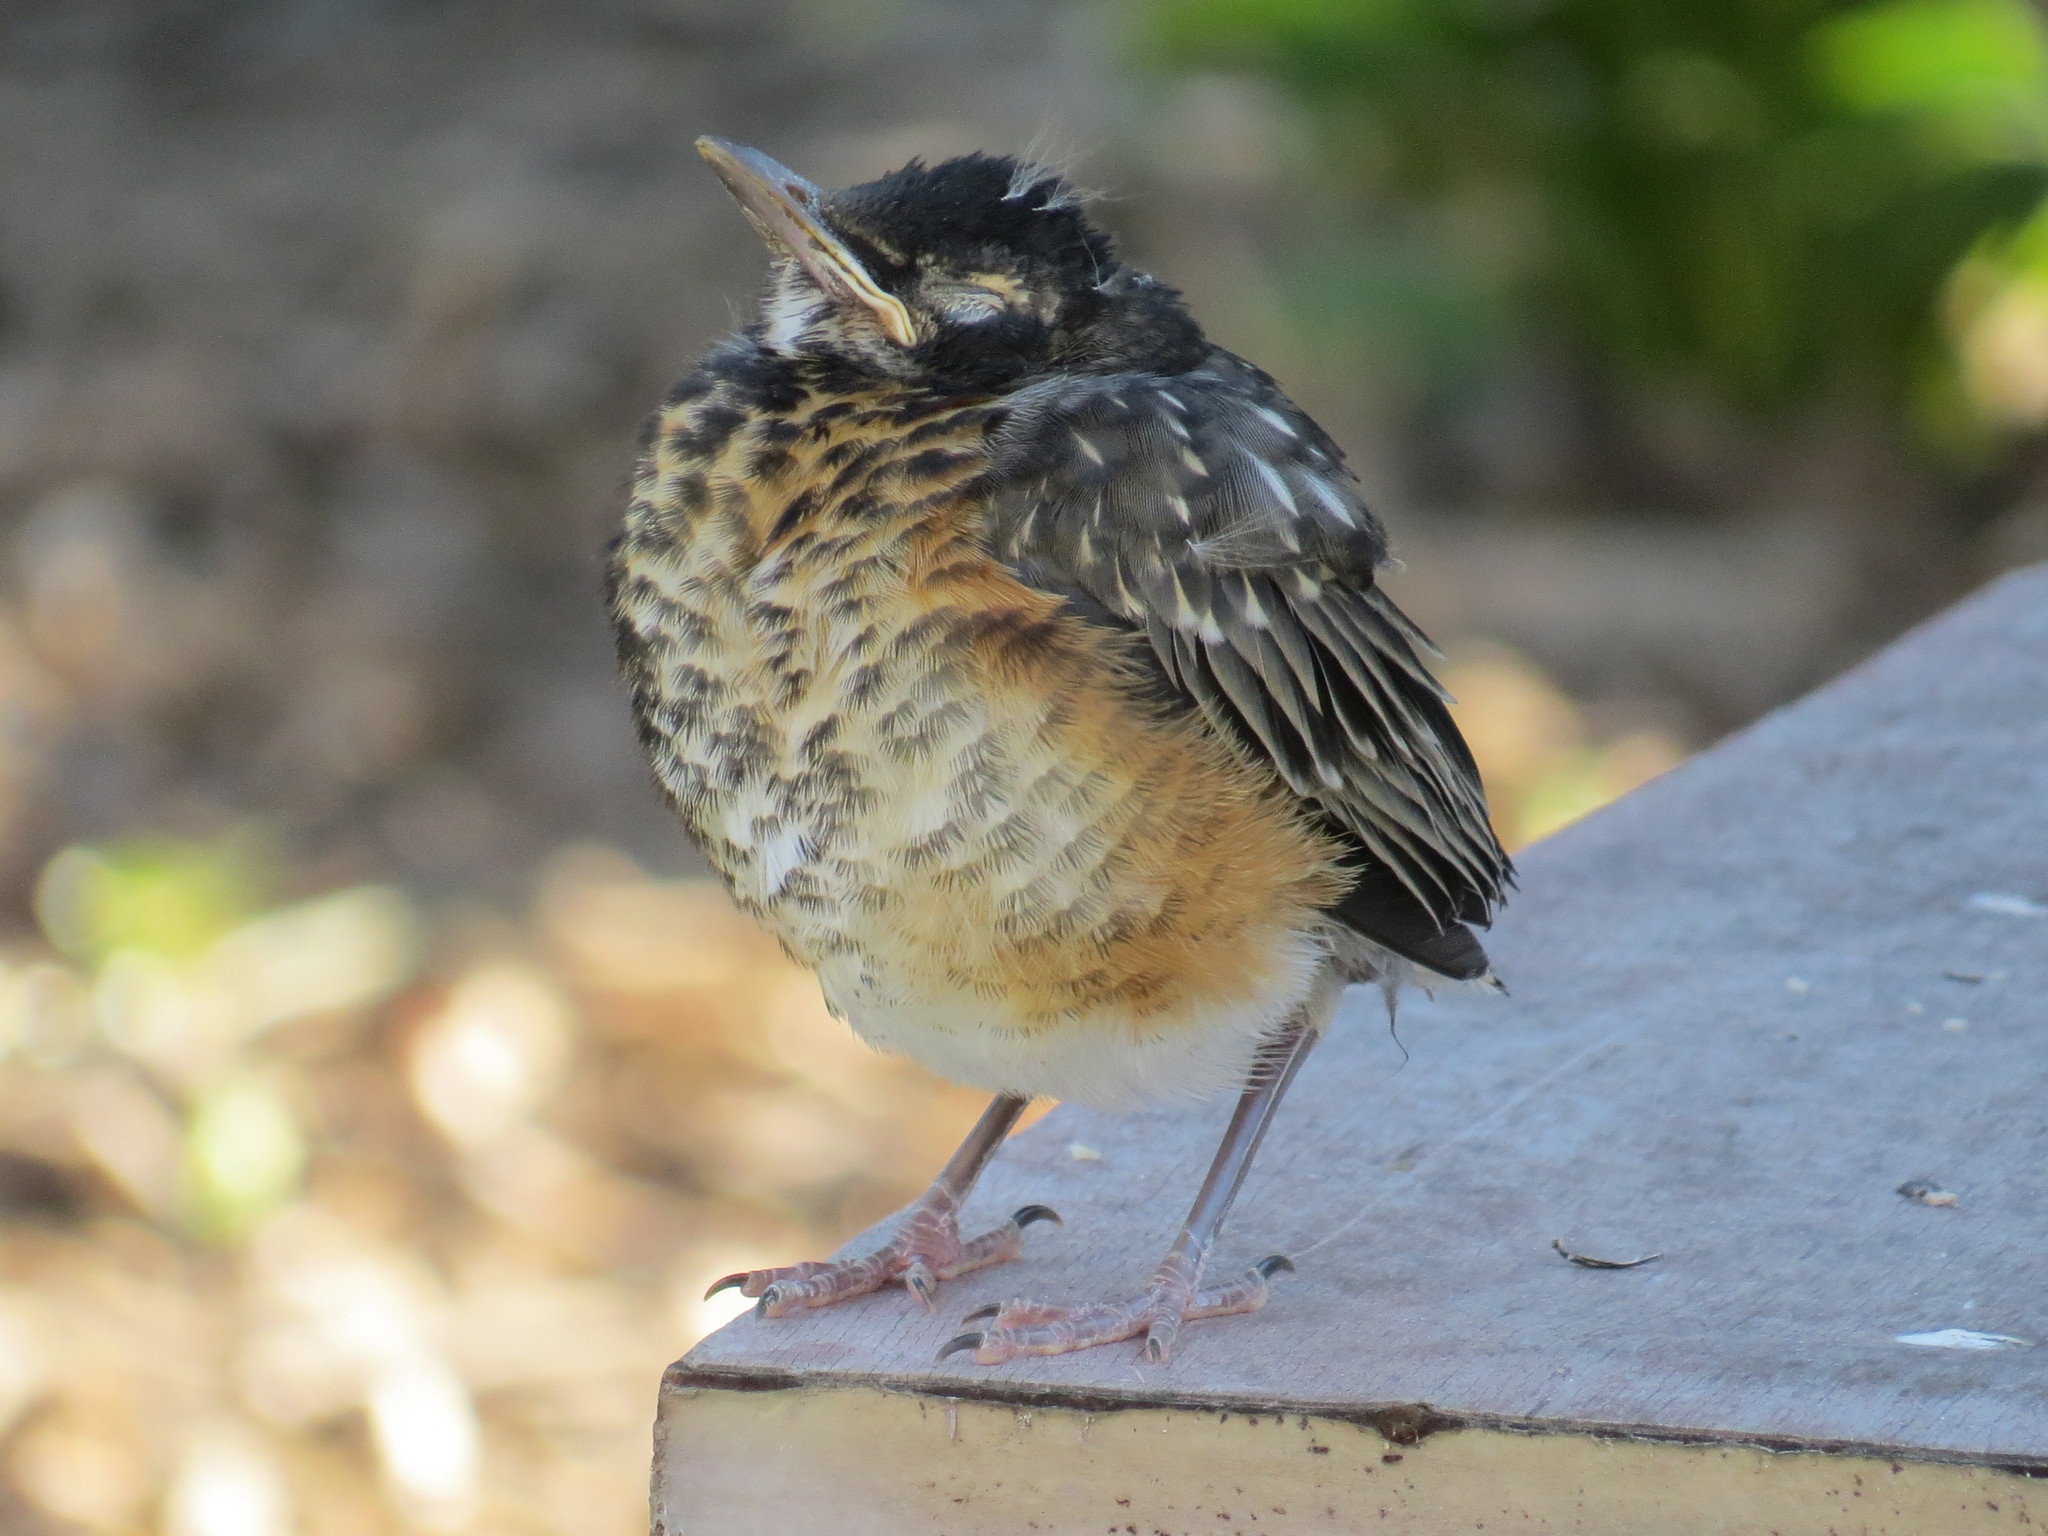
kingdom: Animalia
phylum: Chordata
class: Aves
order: Passeriformes
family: Turdidae
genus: Turdus
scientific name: Turdus migratorius
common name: American robin
